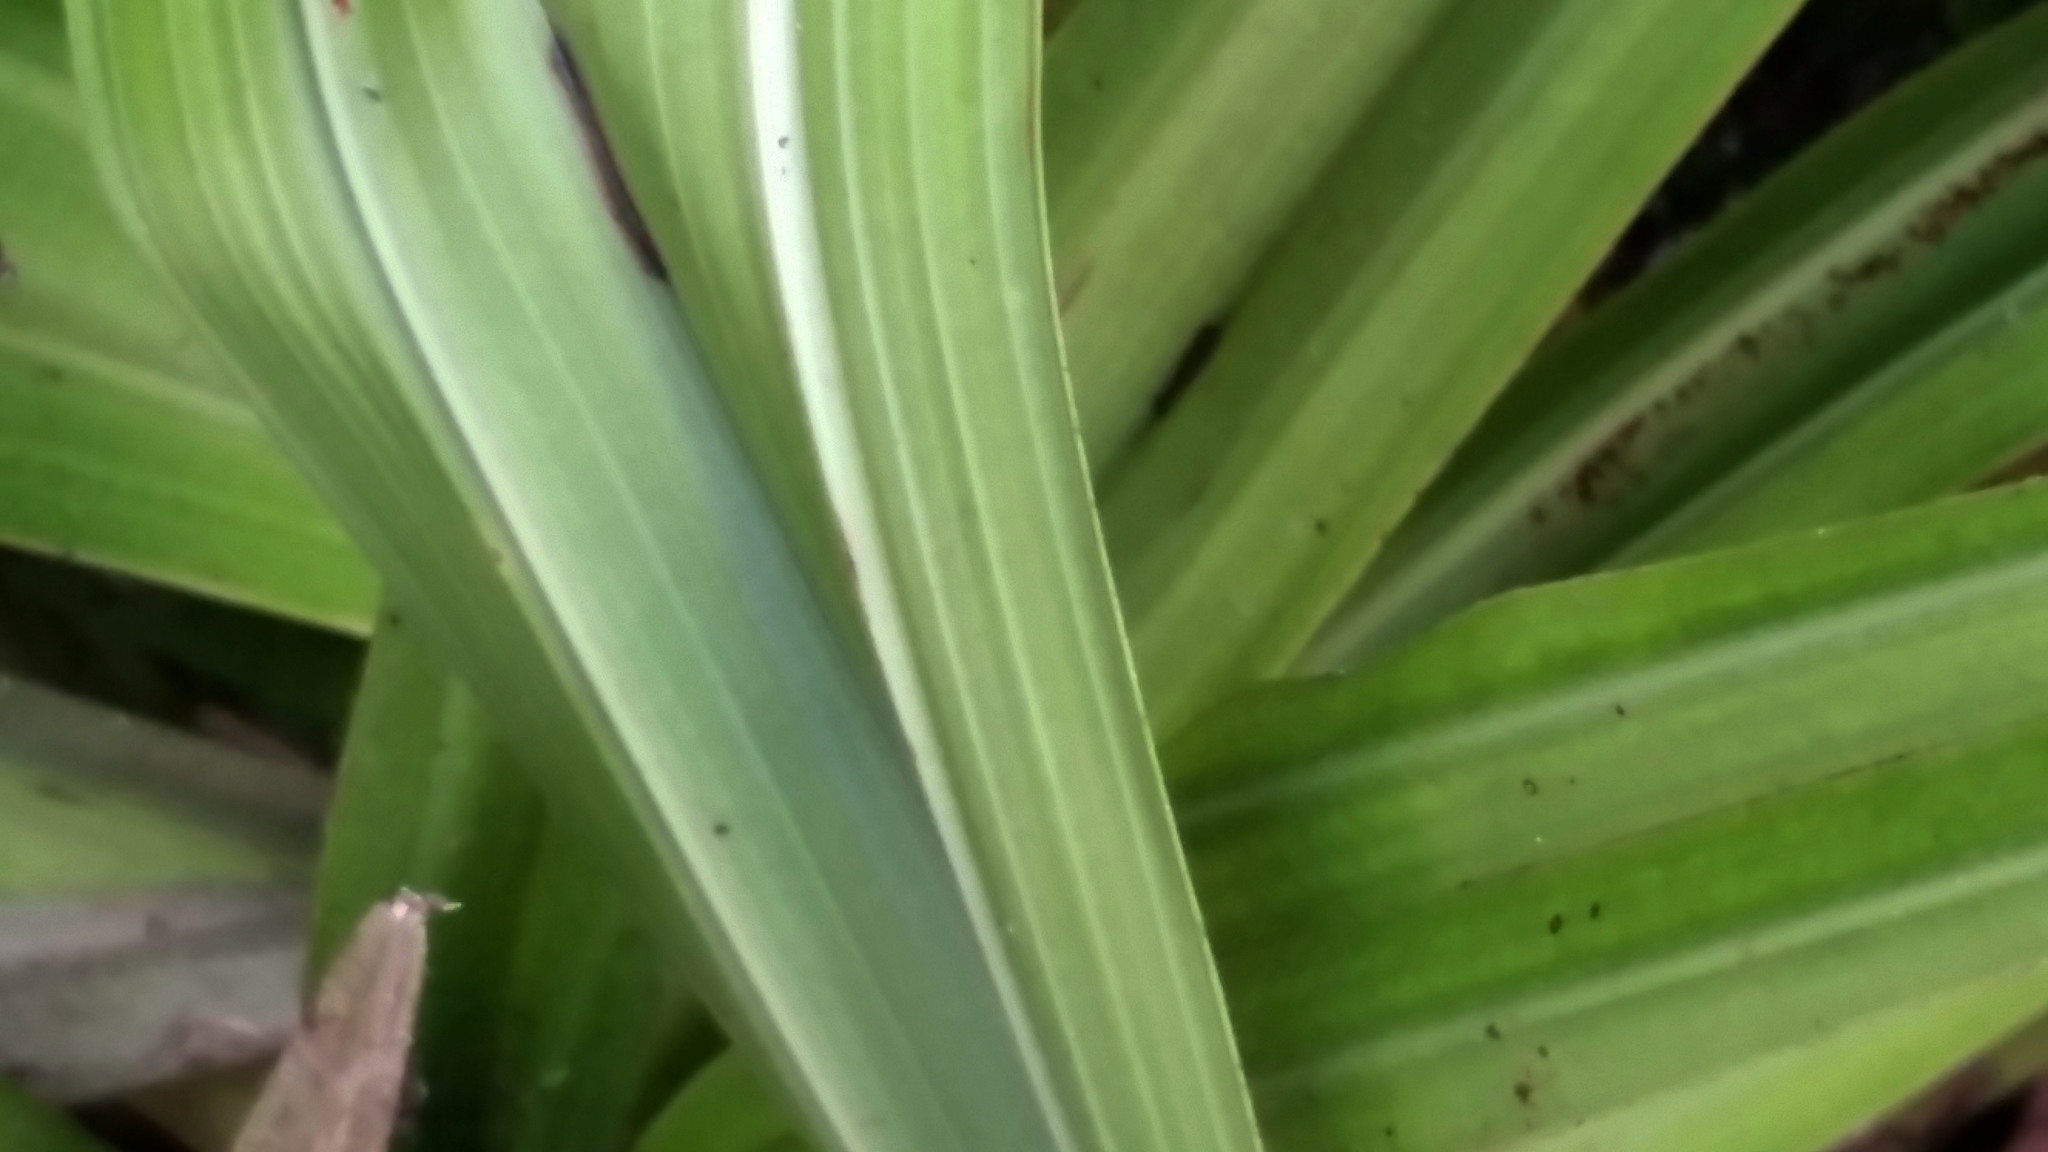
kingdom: Plantae
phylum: Tracheophyta
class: Liliopsida
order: Asparagales
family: Asteliaceae
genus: Astelia
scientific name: Astelia grandis
